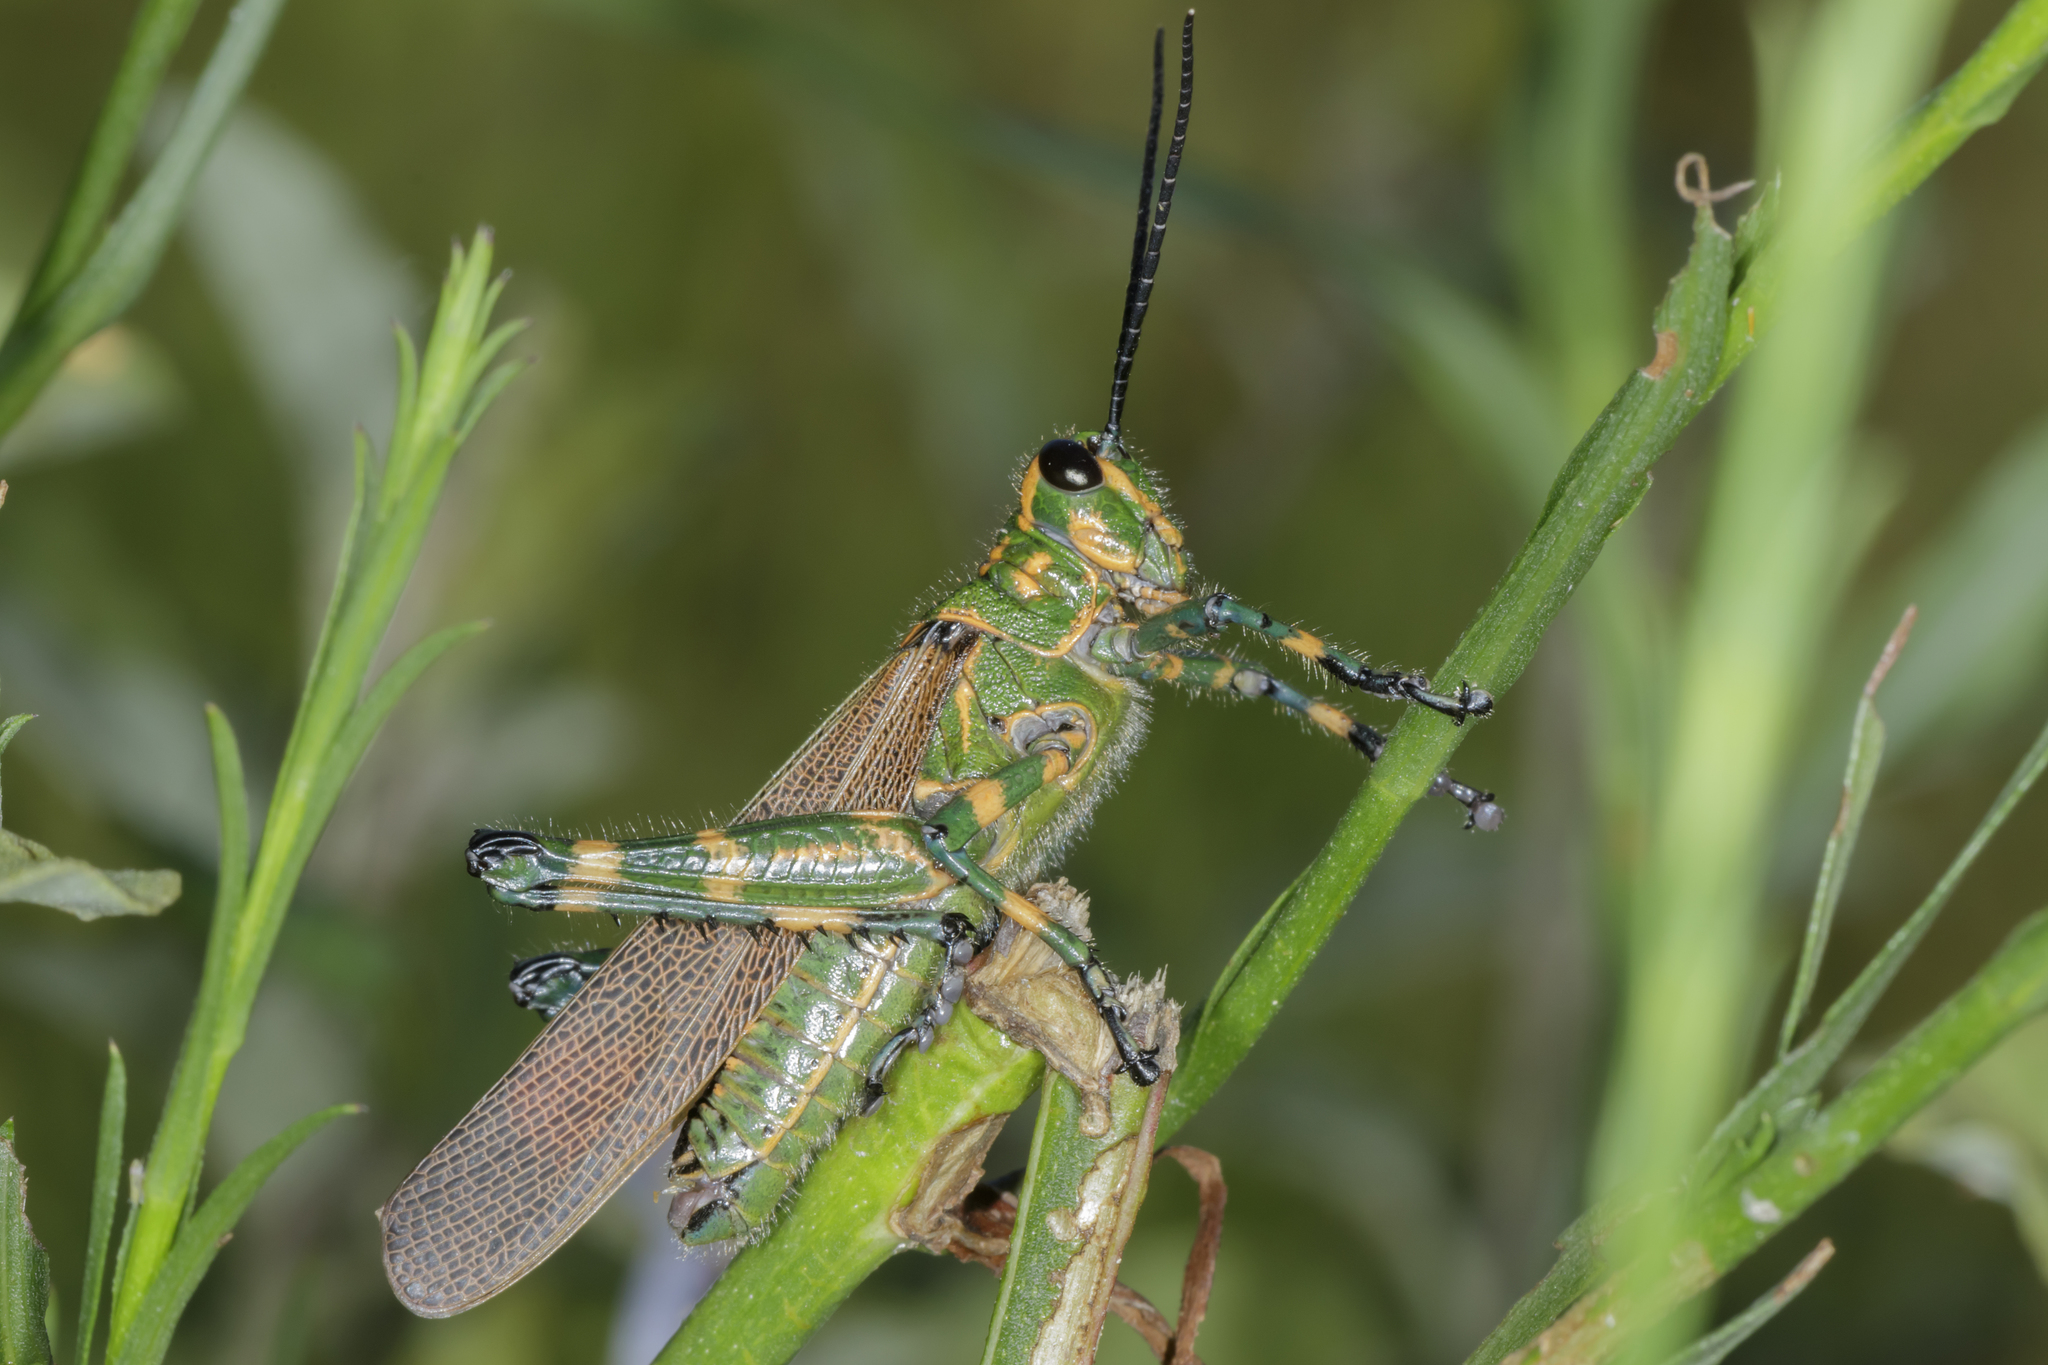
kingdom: Animalia
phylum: Arthropoda
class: Insecta
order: Orthoptera
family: Romaleidae
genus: Chromacris
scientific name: Chromacris speciosa
